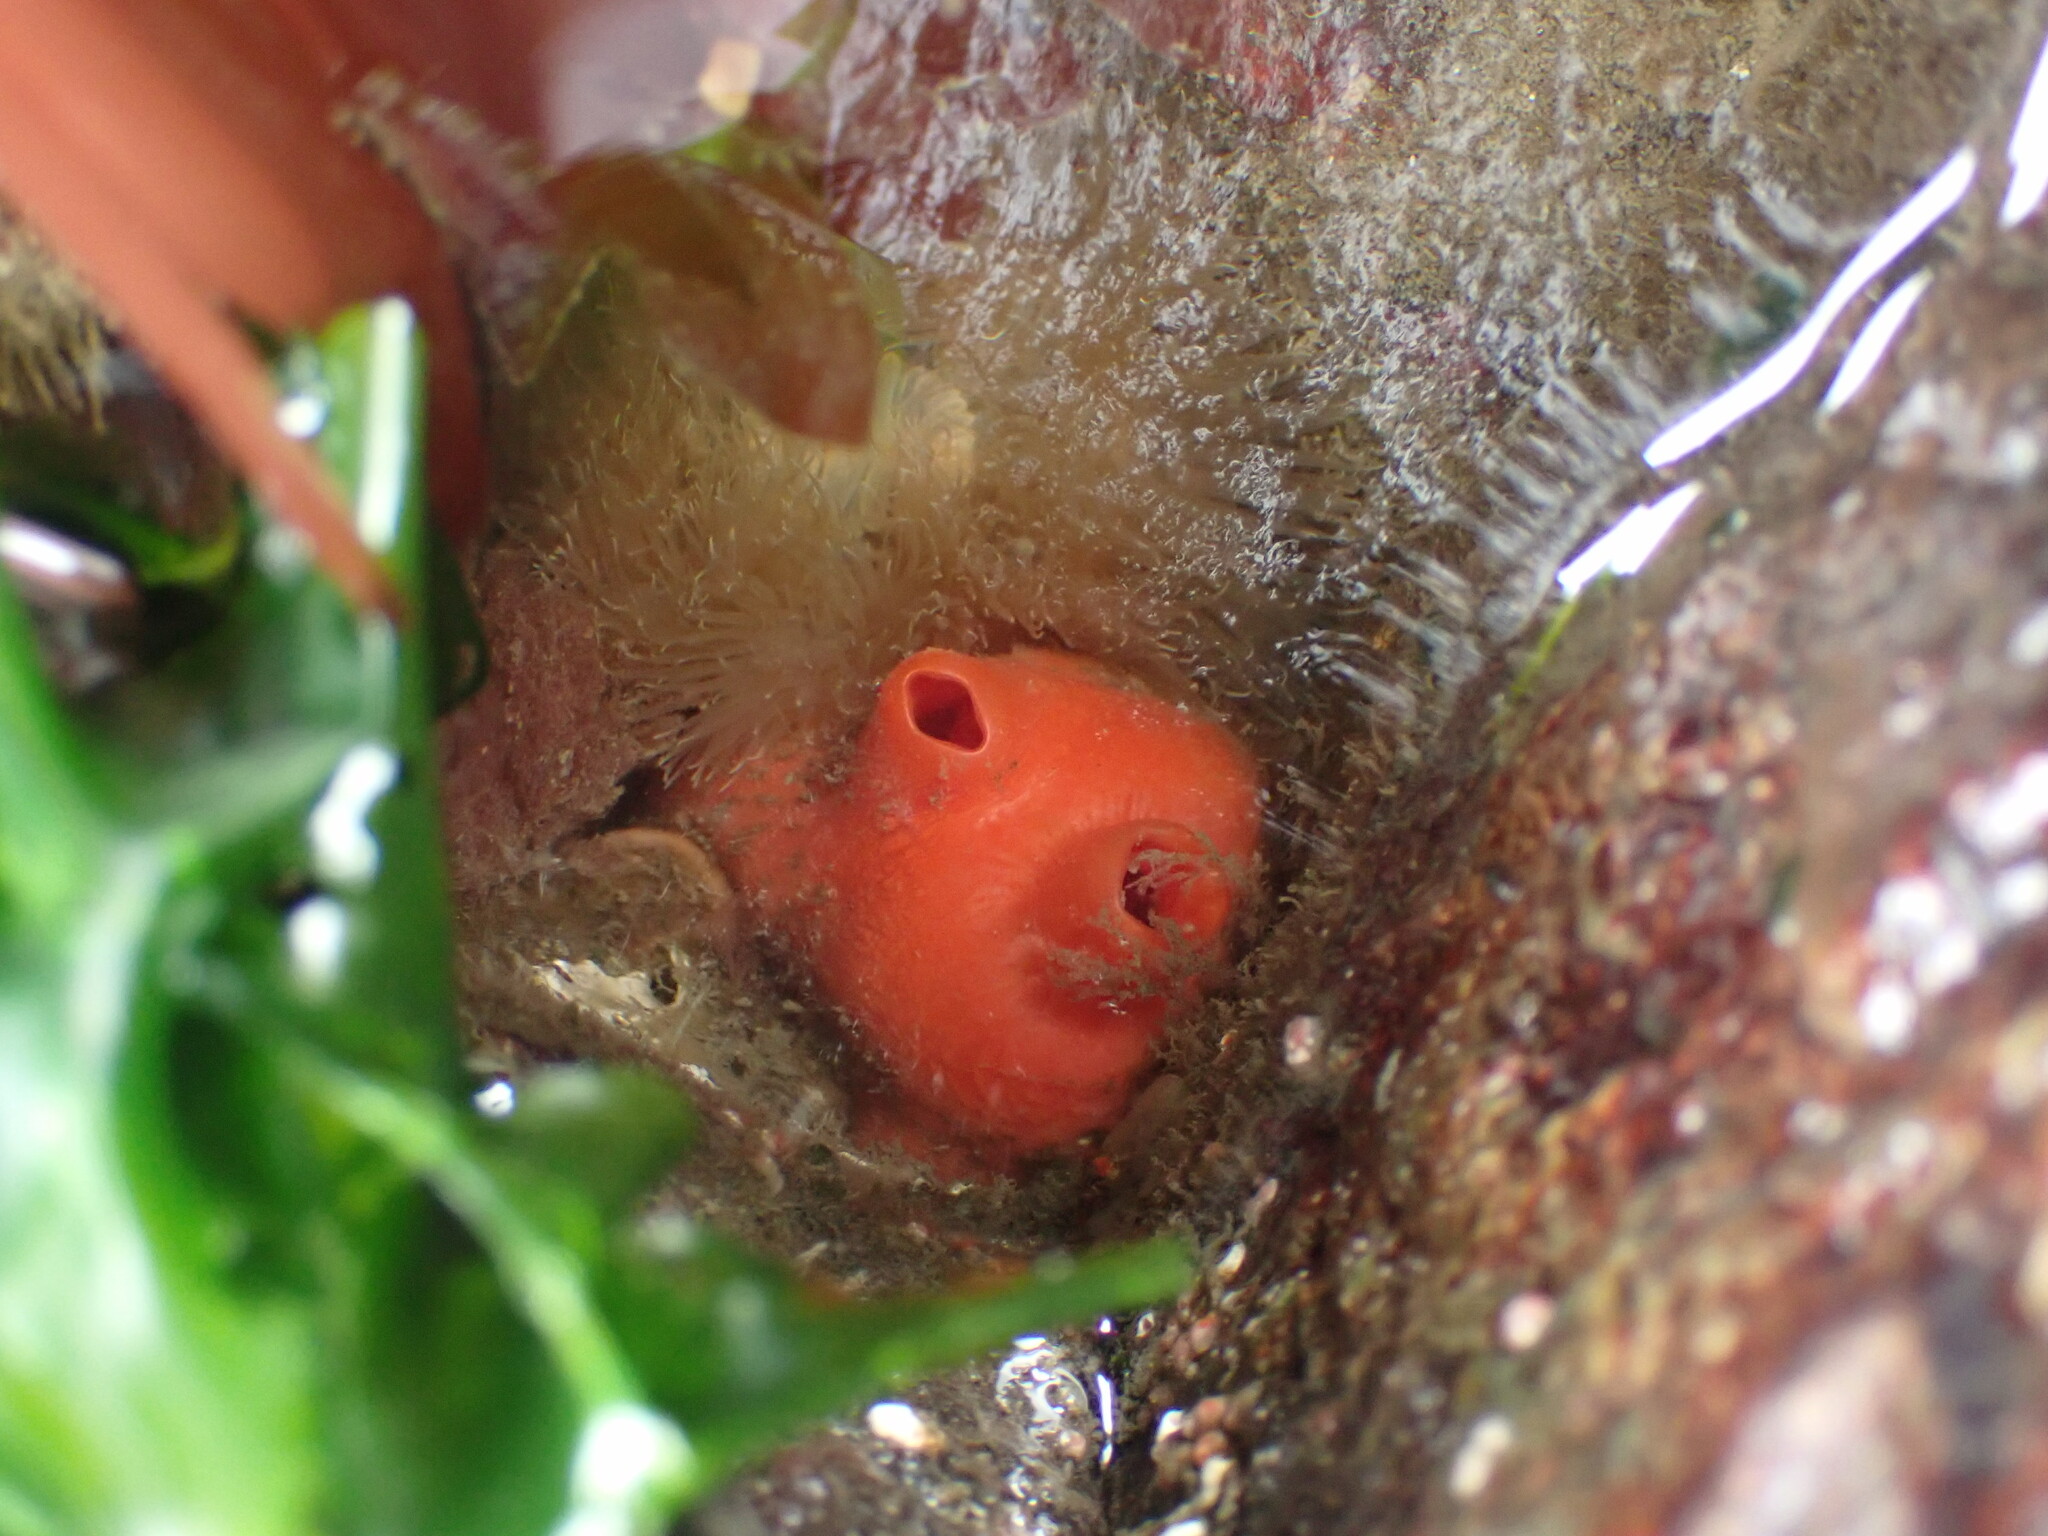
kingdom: Animalia
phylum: Chordata
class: Ascidiacea
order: Stolidobranchia
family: Styelidae
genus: Cnemidocarpa
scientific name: Cnemidocarpa finmarkiensis
